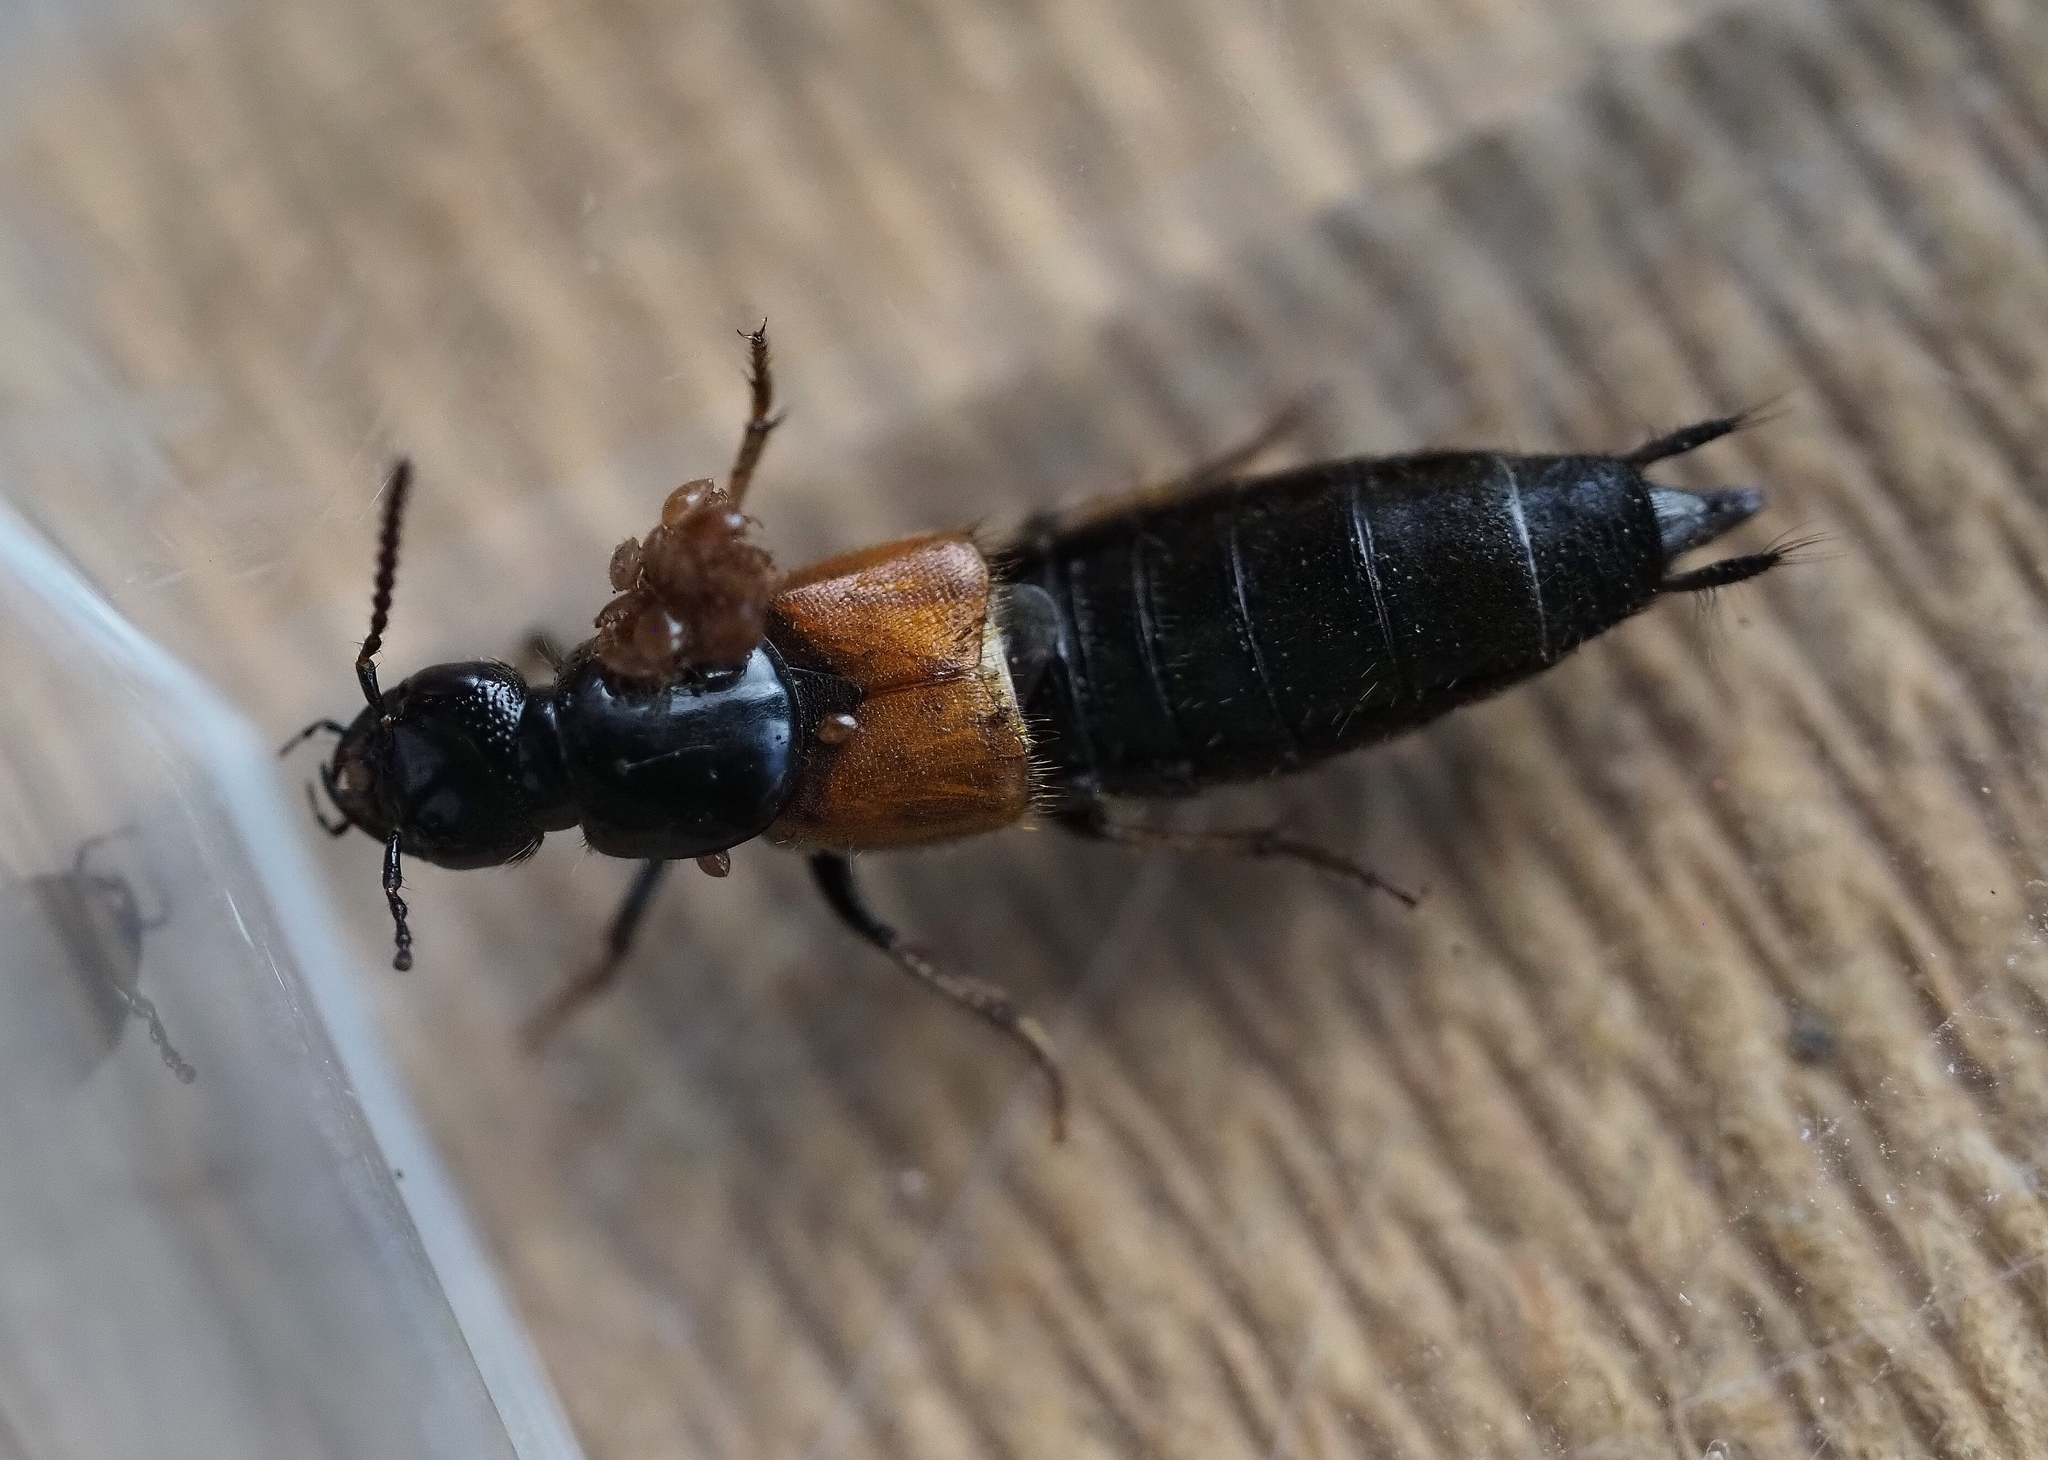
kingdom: Animalia
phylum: Arthropoda
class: Insecta
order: Coleoptera
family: Staphylinidae
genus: Philonthus
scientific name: Philonthus spinipes
